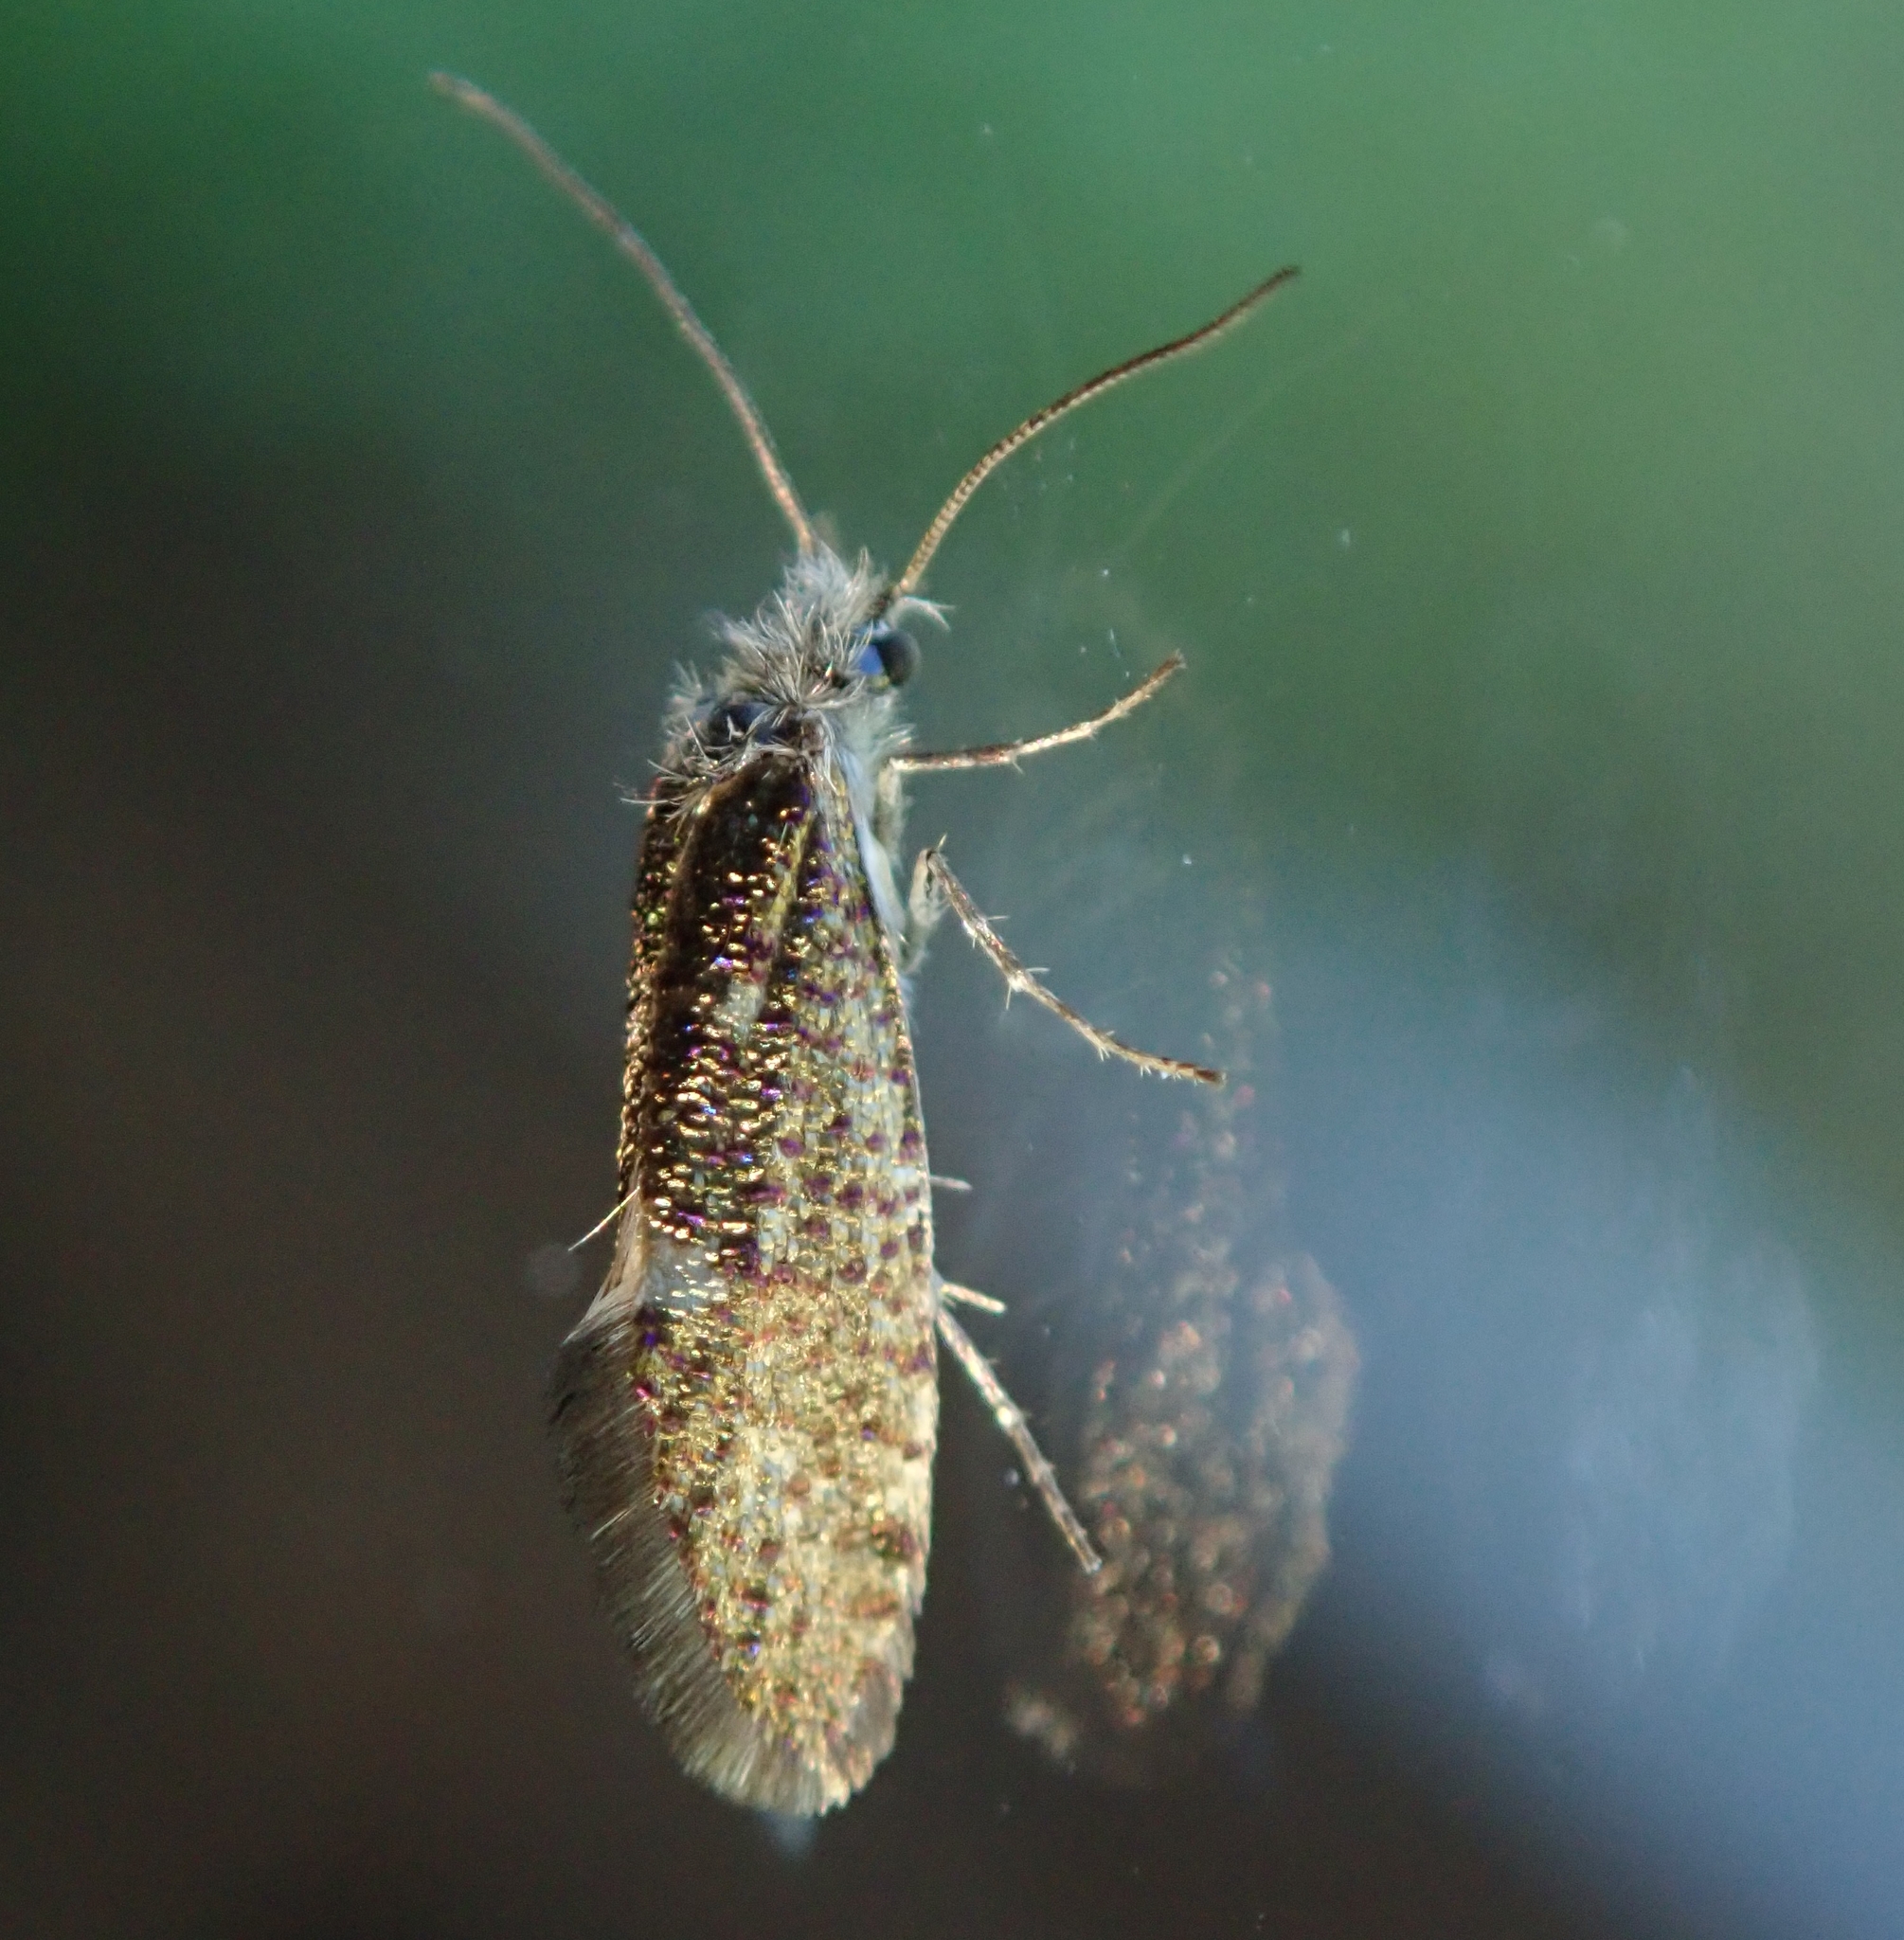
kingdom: Animalia
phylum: Arthropoda
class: Insecta
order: Lepidoptera
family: Eriocraniidae
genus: Dyseriocrania
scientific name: Dyseriocrania subpurpurella
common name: Common oak purple
